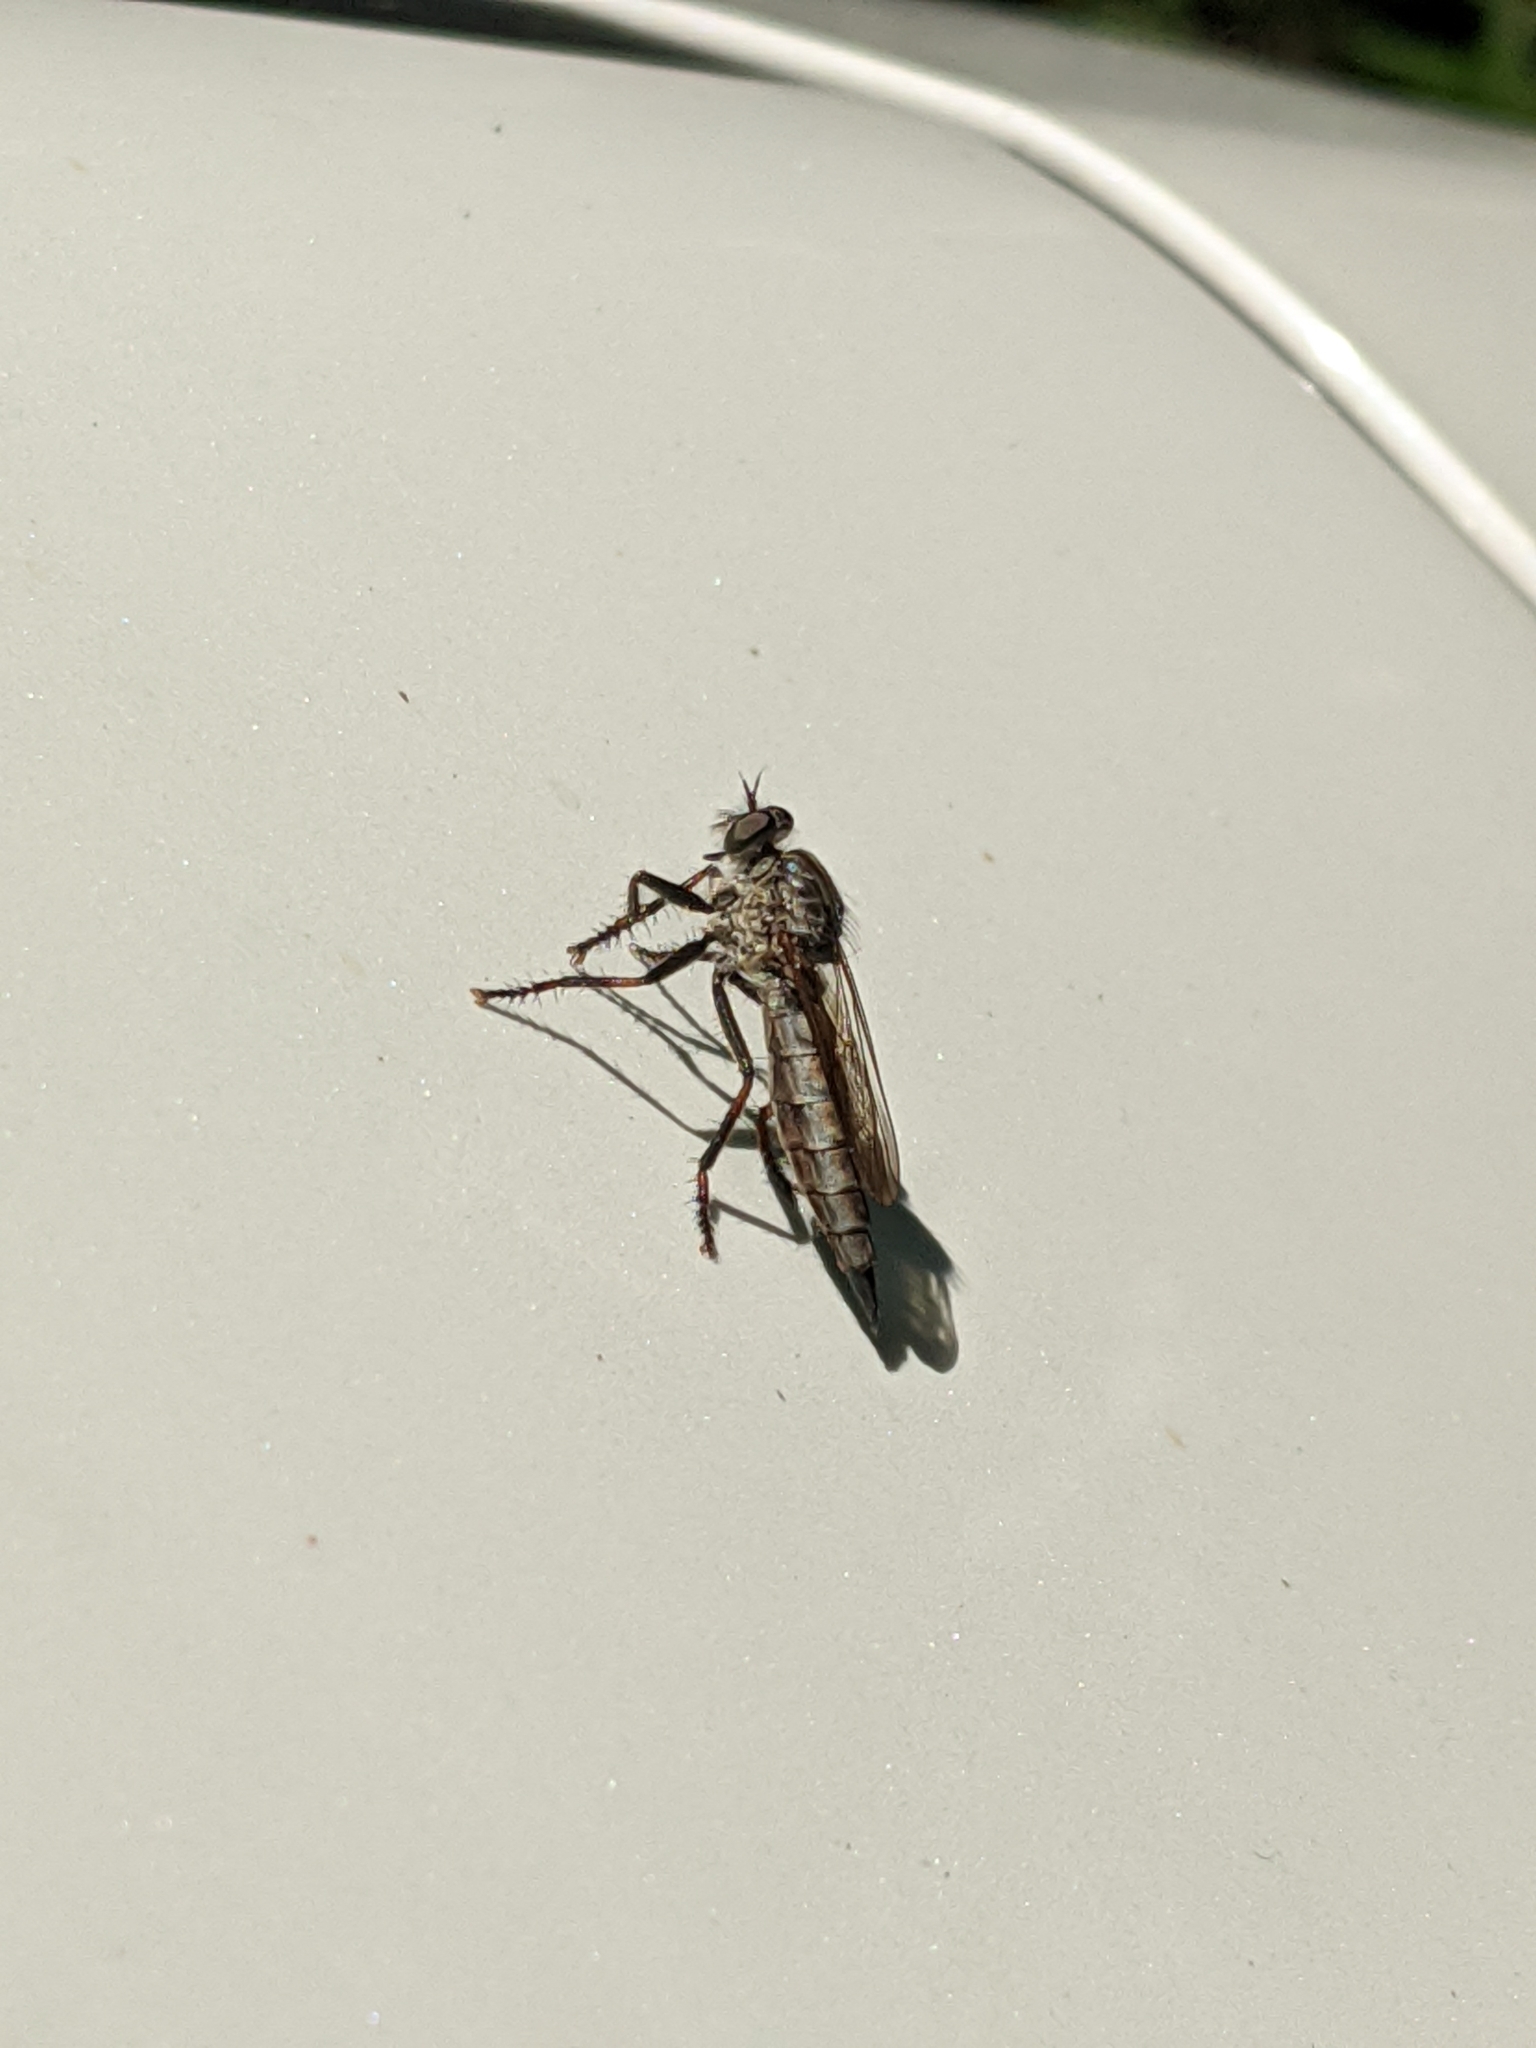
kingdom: Animalia
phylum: Arthropoda
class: Insecta
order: Diptera
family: Asilidae
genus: Machimus
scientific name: Machimus notatus
